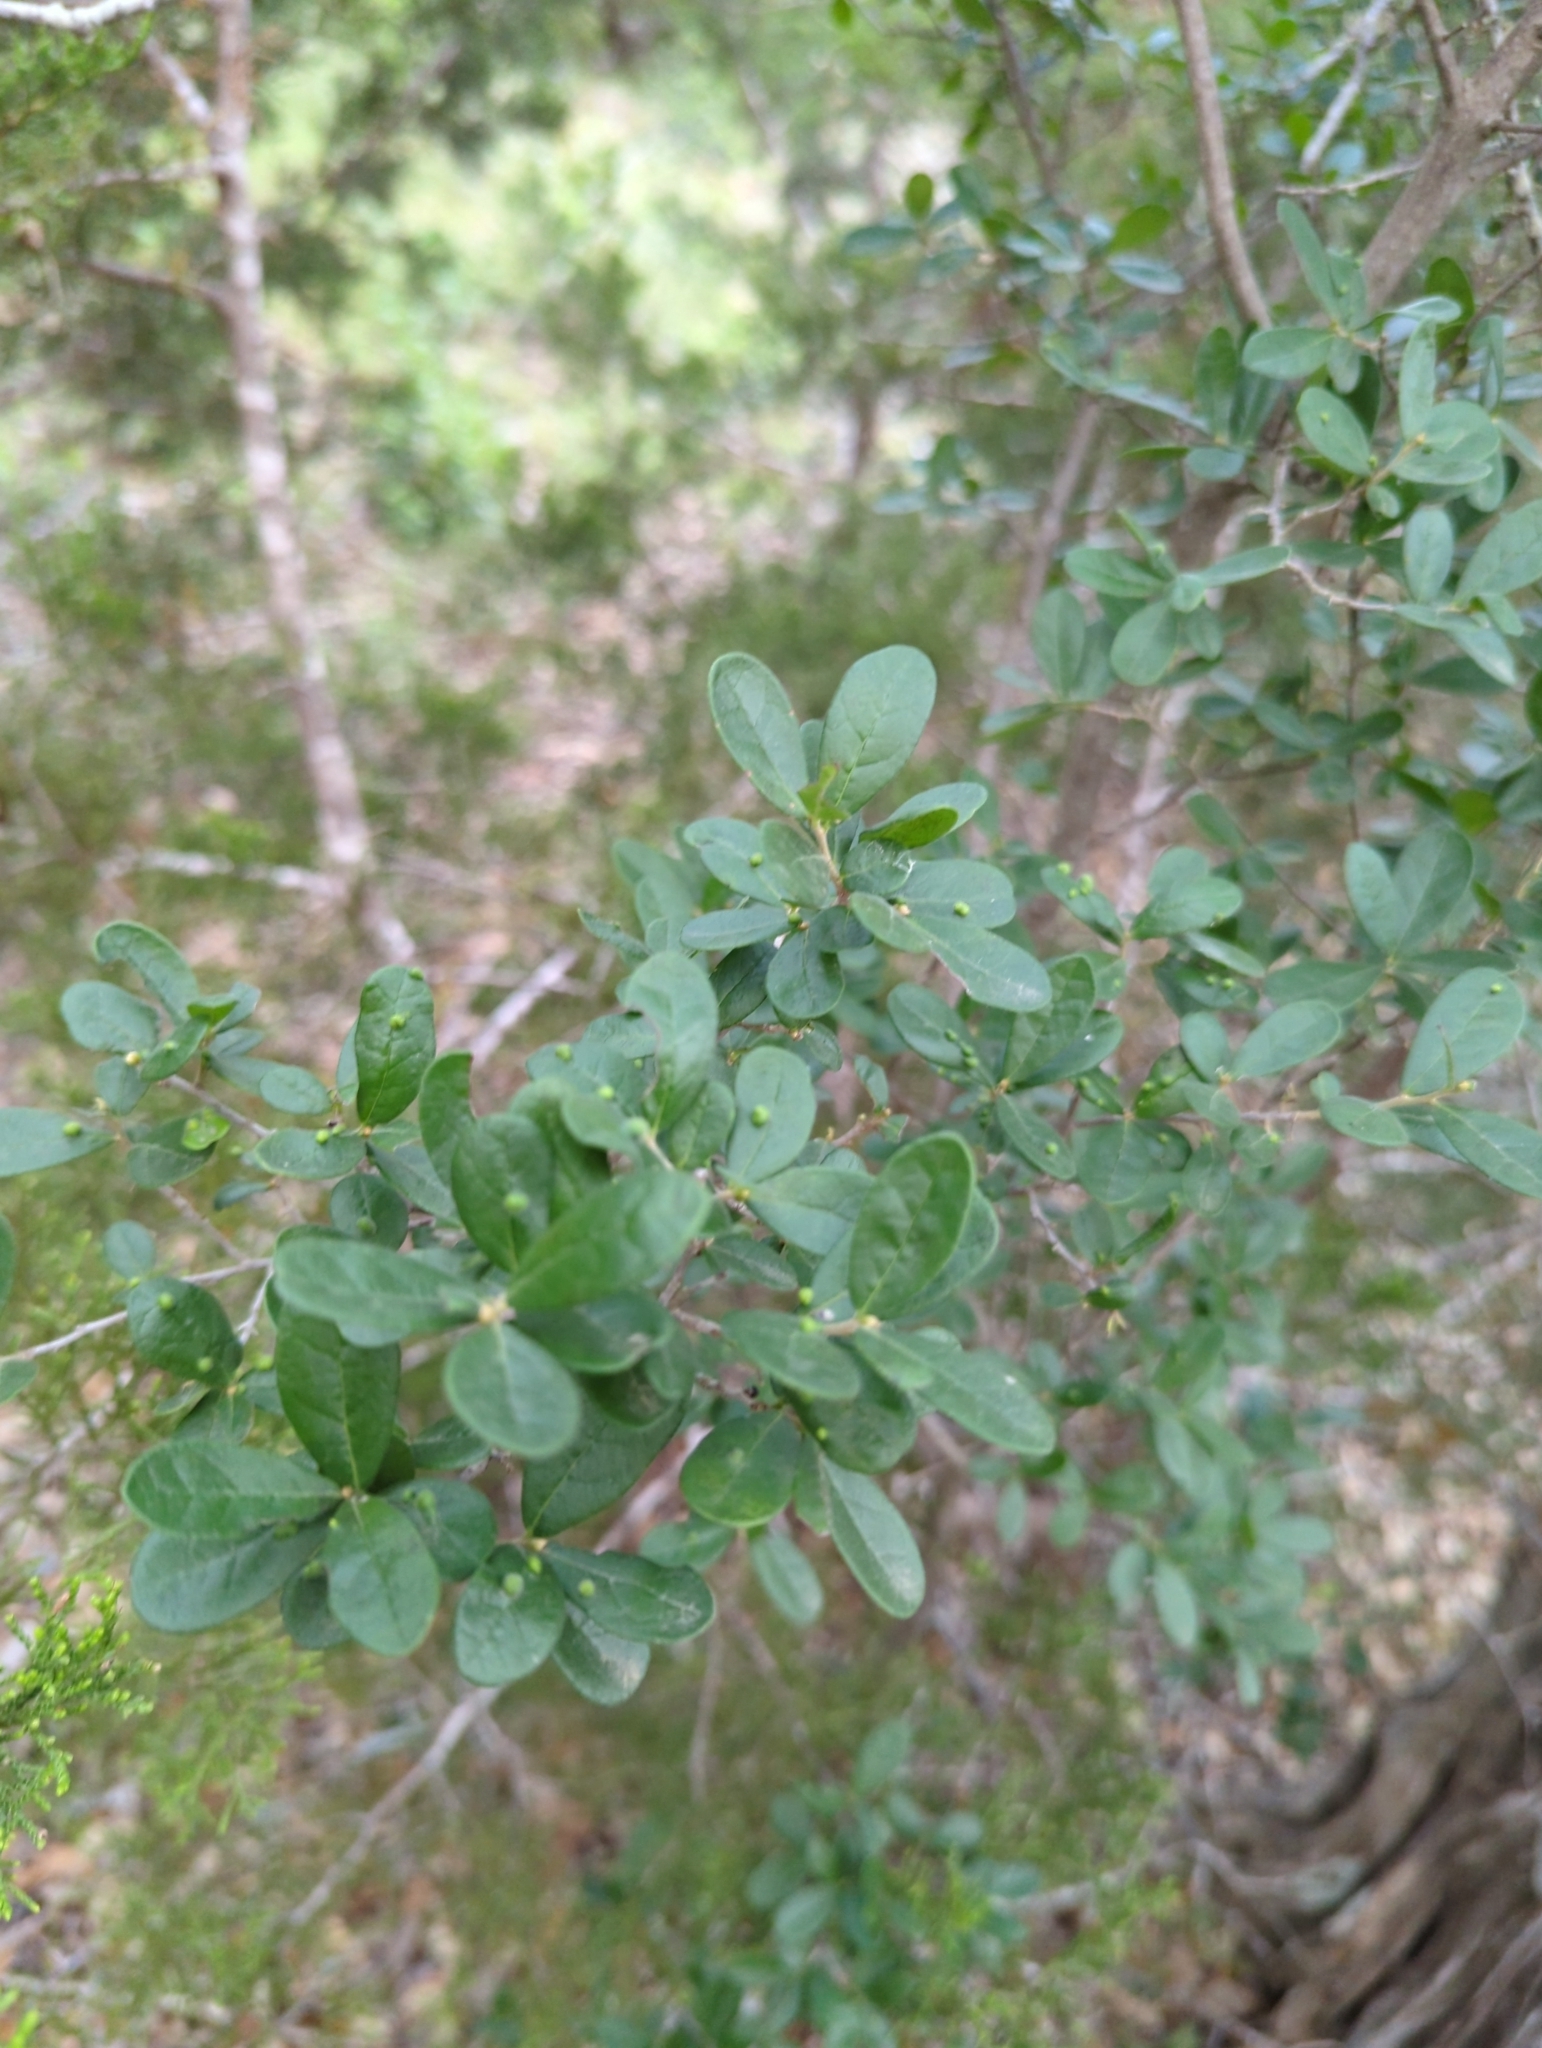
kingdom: Plantae
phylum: Tracheophyta
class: Magnoliopsida
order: Ericales
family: Ebenaceae
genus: Diospyros
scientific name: Diospyros texana
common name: Texas persimmon
